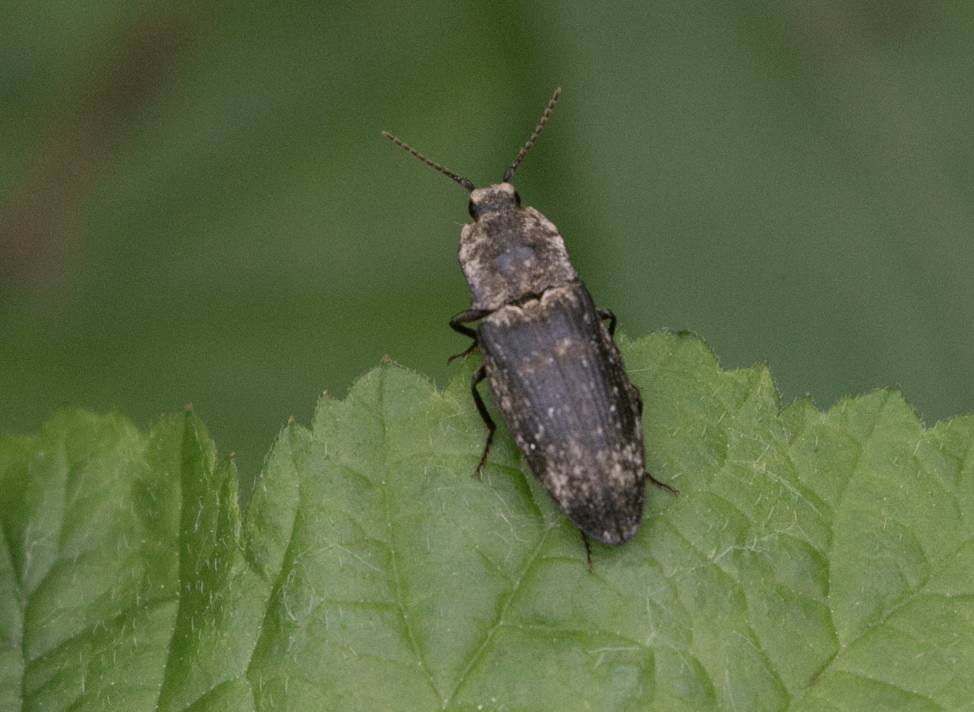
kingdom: Animalia
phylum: Arthropoda
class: Insecta
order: Coleoptera
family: Elateridae
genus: Agrypnus
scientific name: Agrypnus murinus
